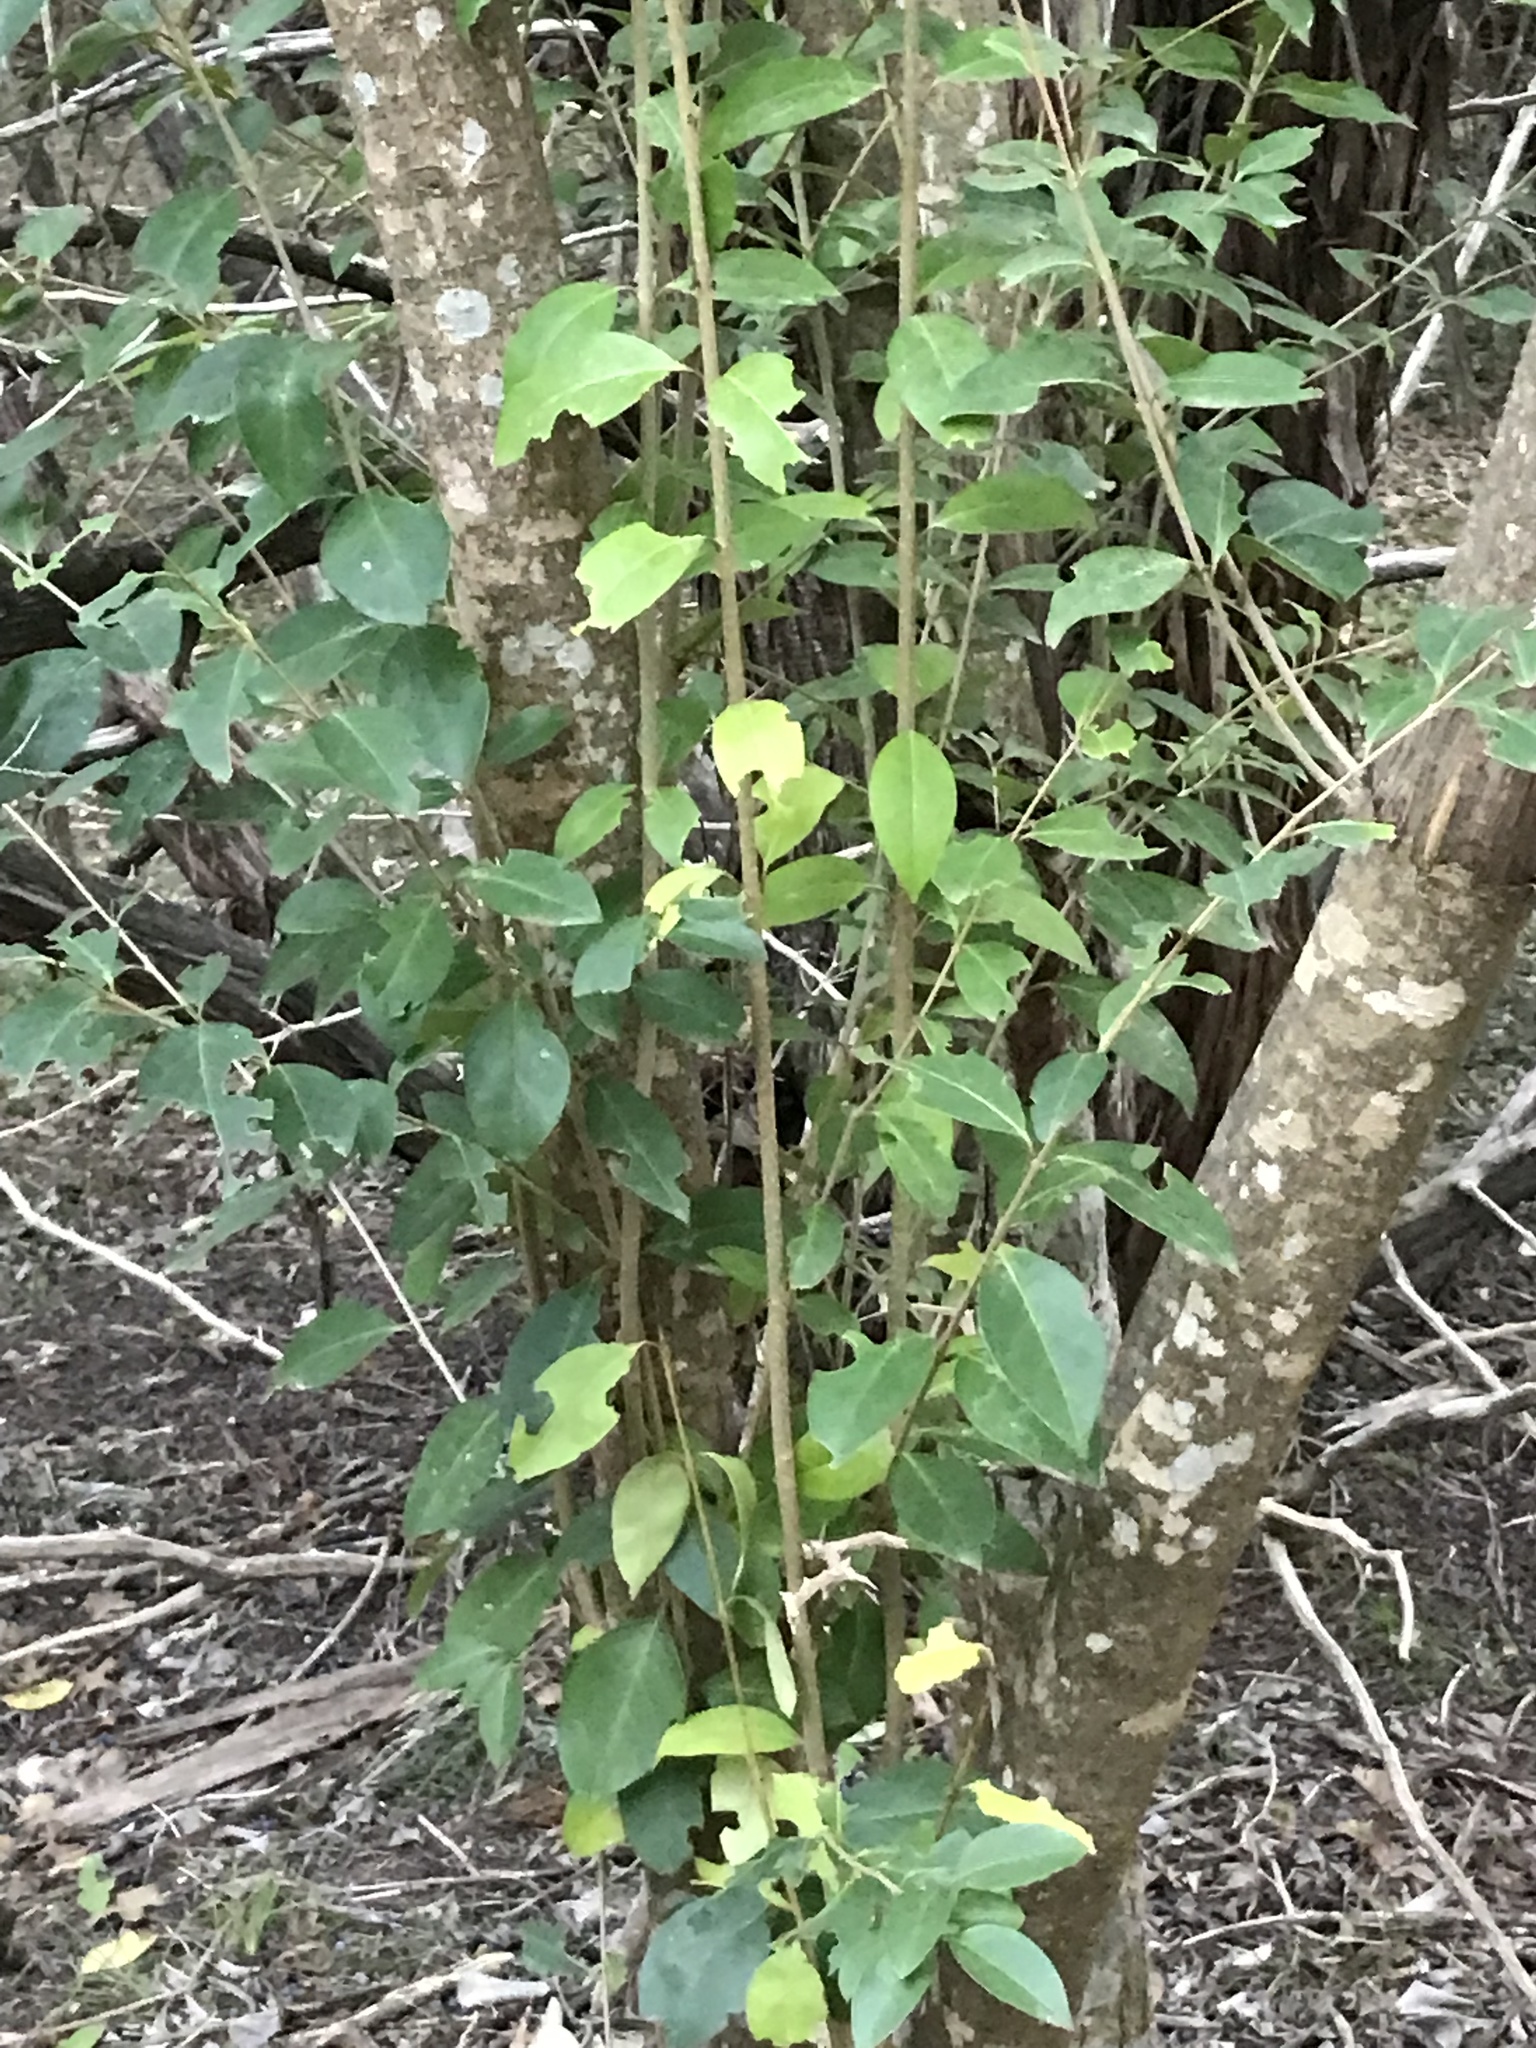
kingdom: Plantae
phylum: Tracheophyta
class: Magnoliopsida
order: Lamiales
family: Oleaceae
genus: Ligustrum
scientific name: Ligustrum lucidum
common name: Glossy privet
